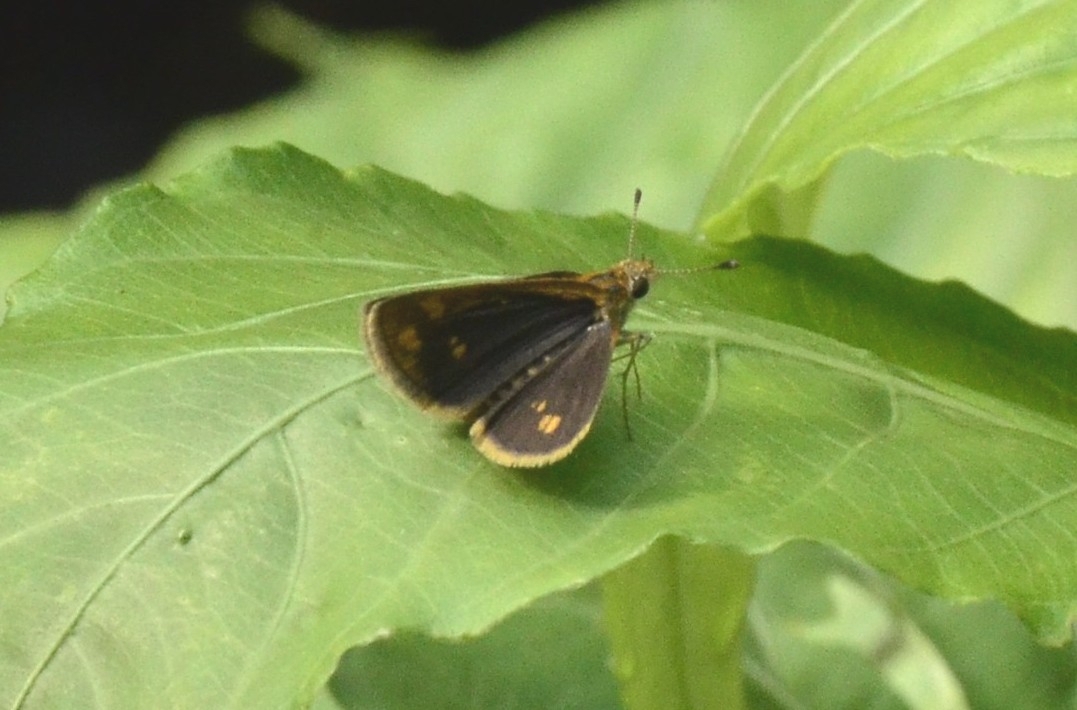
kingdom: Animalia
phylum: Arthropoda
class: Insecta
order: Lepidoptera
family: Hesperiidae
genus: Taractrocera
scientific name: Taractrocera ceramas
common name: Tamil grass dart
